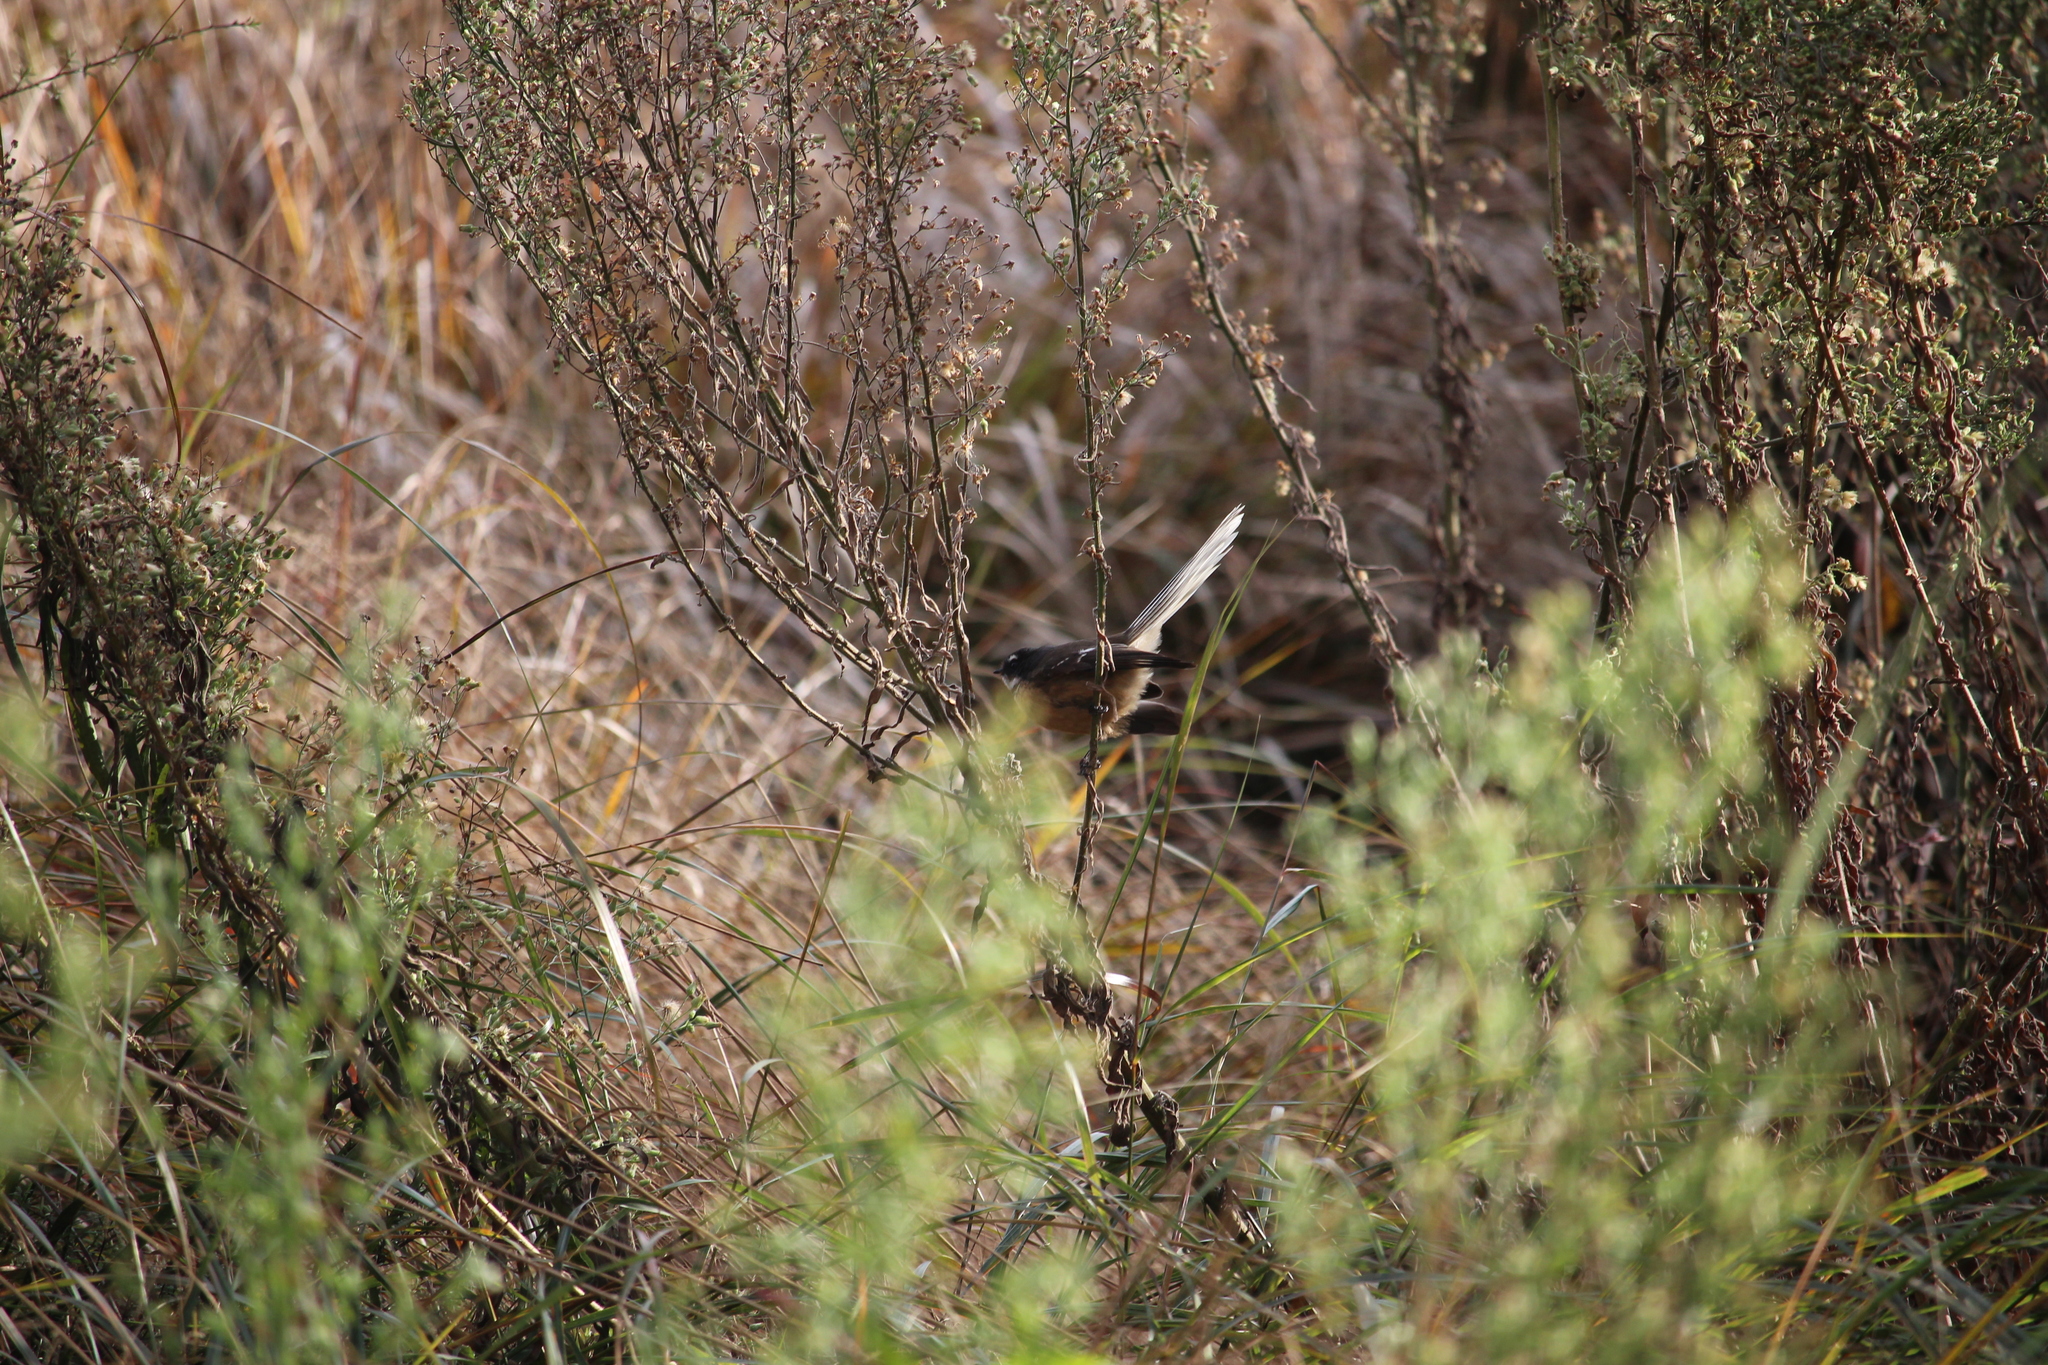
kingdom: Animalia
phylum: Chordata
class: Aves
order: Passeriformes
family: Rhipiduridae
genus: Rhipidura
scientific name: Rhipidura fuliginosa
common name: New zealand fantail
